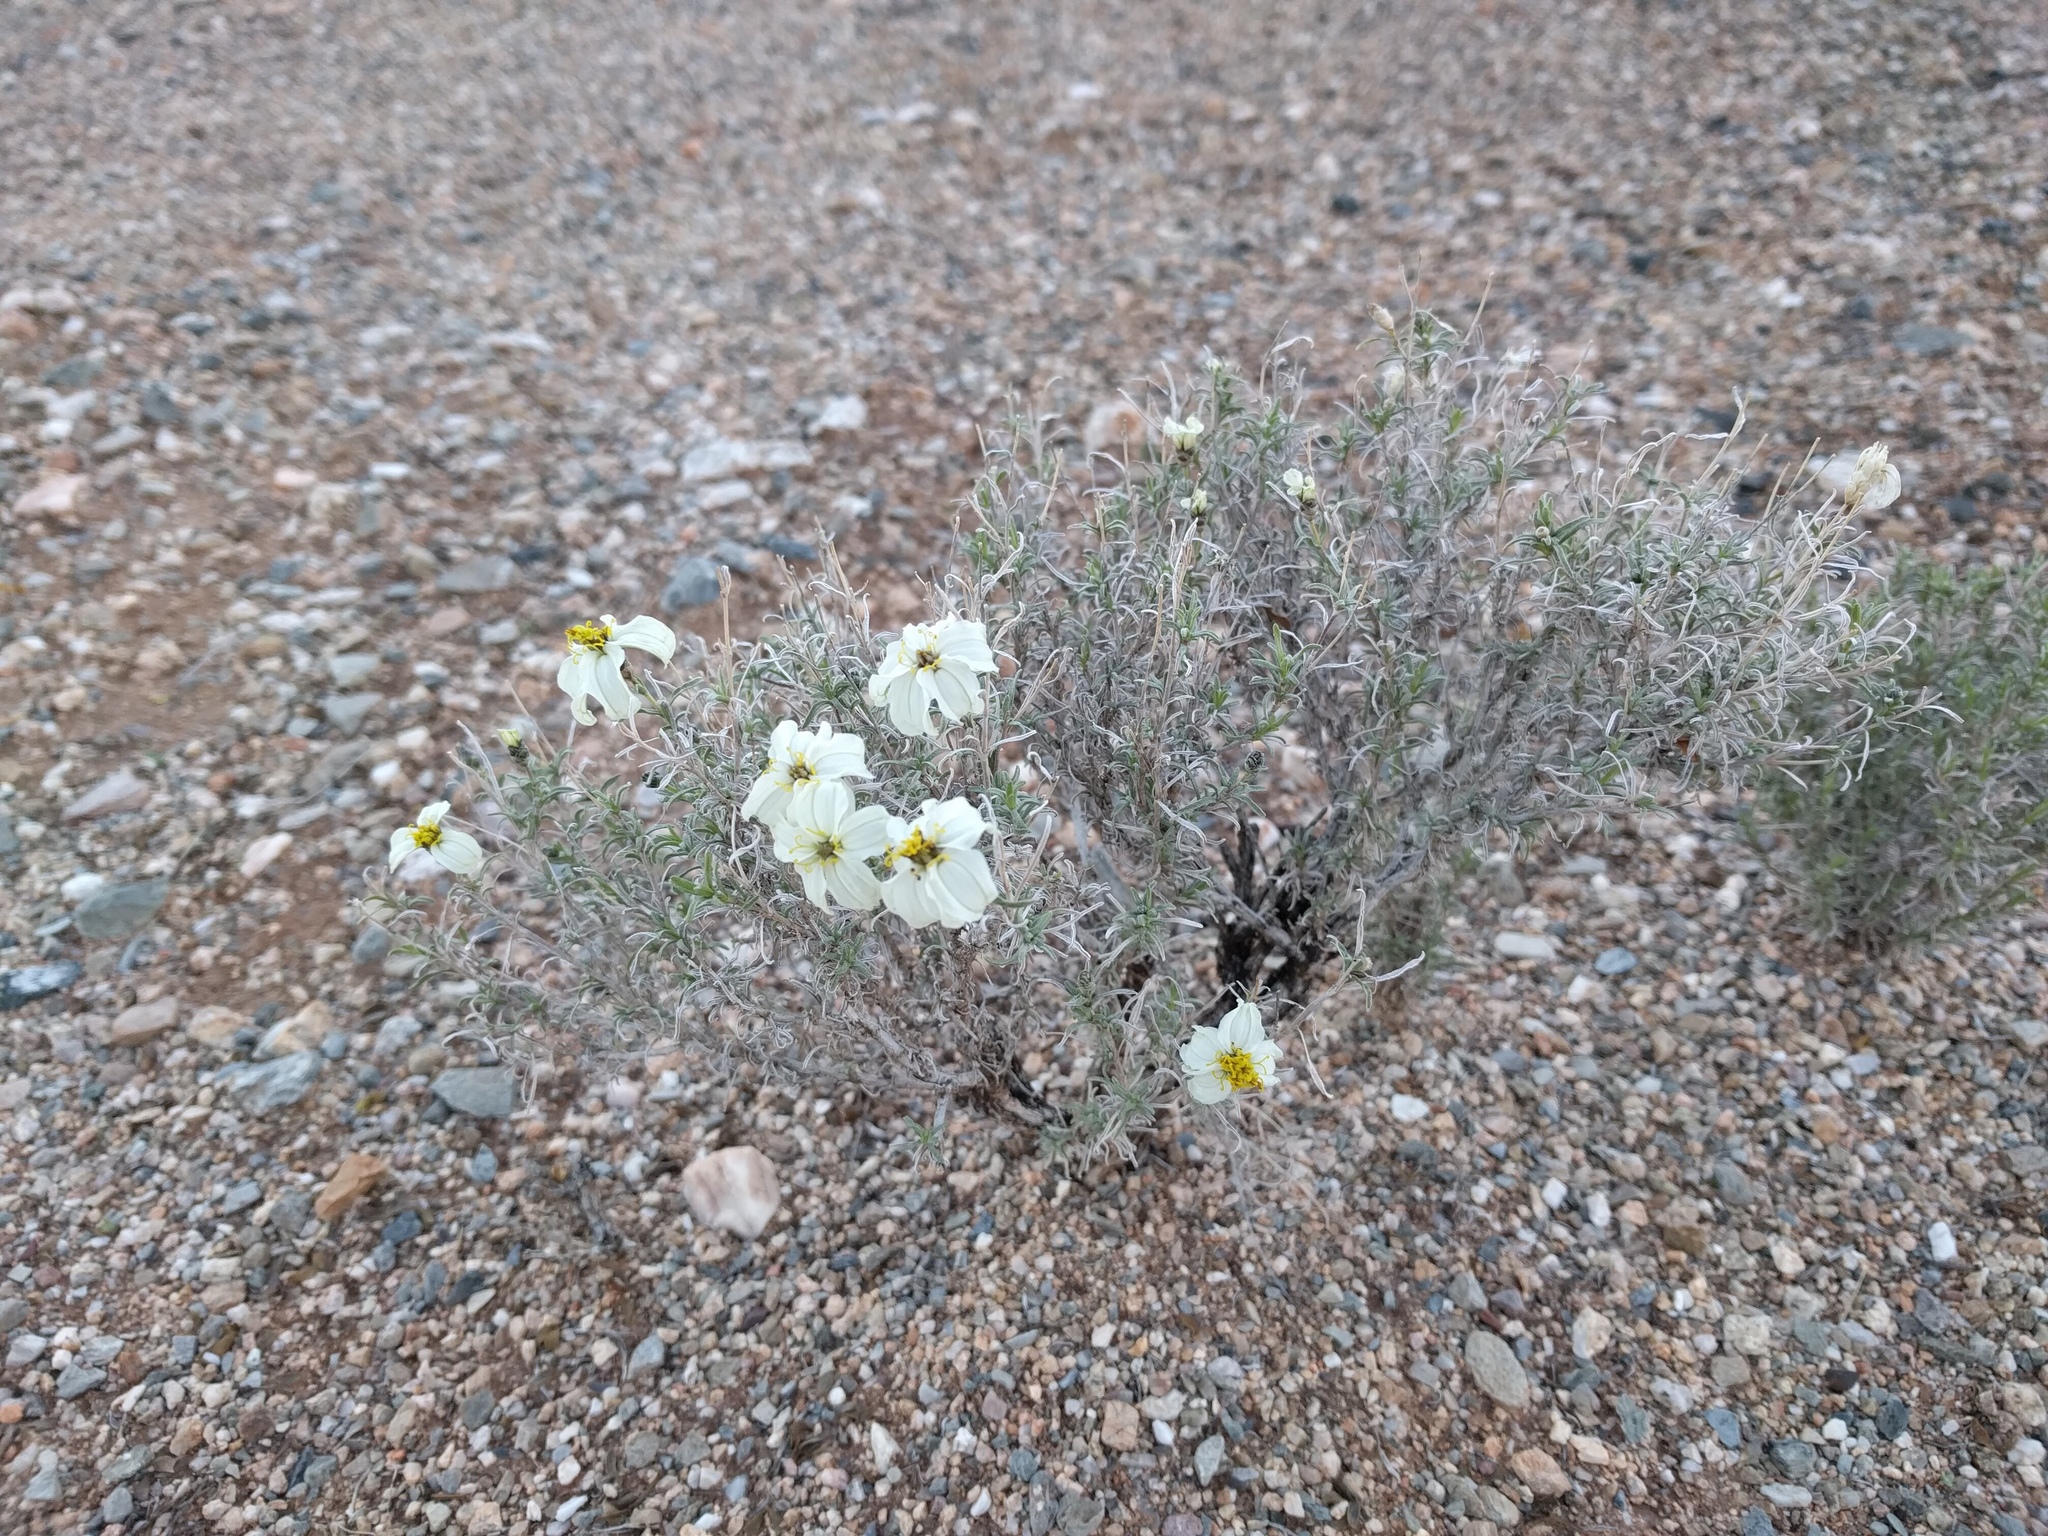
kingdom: Plantae
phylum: Tracheophyta
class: Magnoliopsida
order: Asterales
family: Asteraceae
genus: Zinnia
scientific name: Zinnia acerosa
